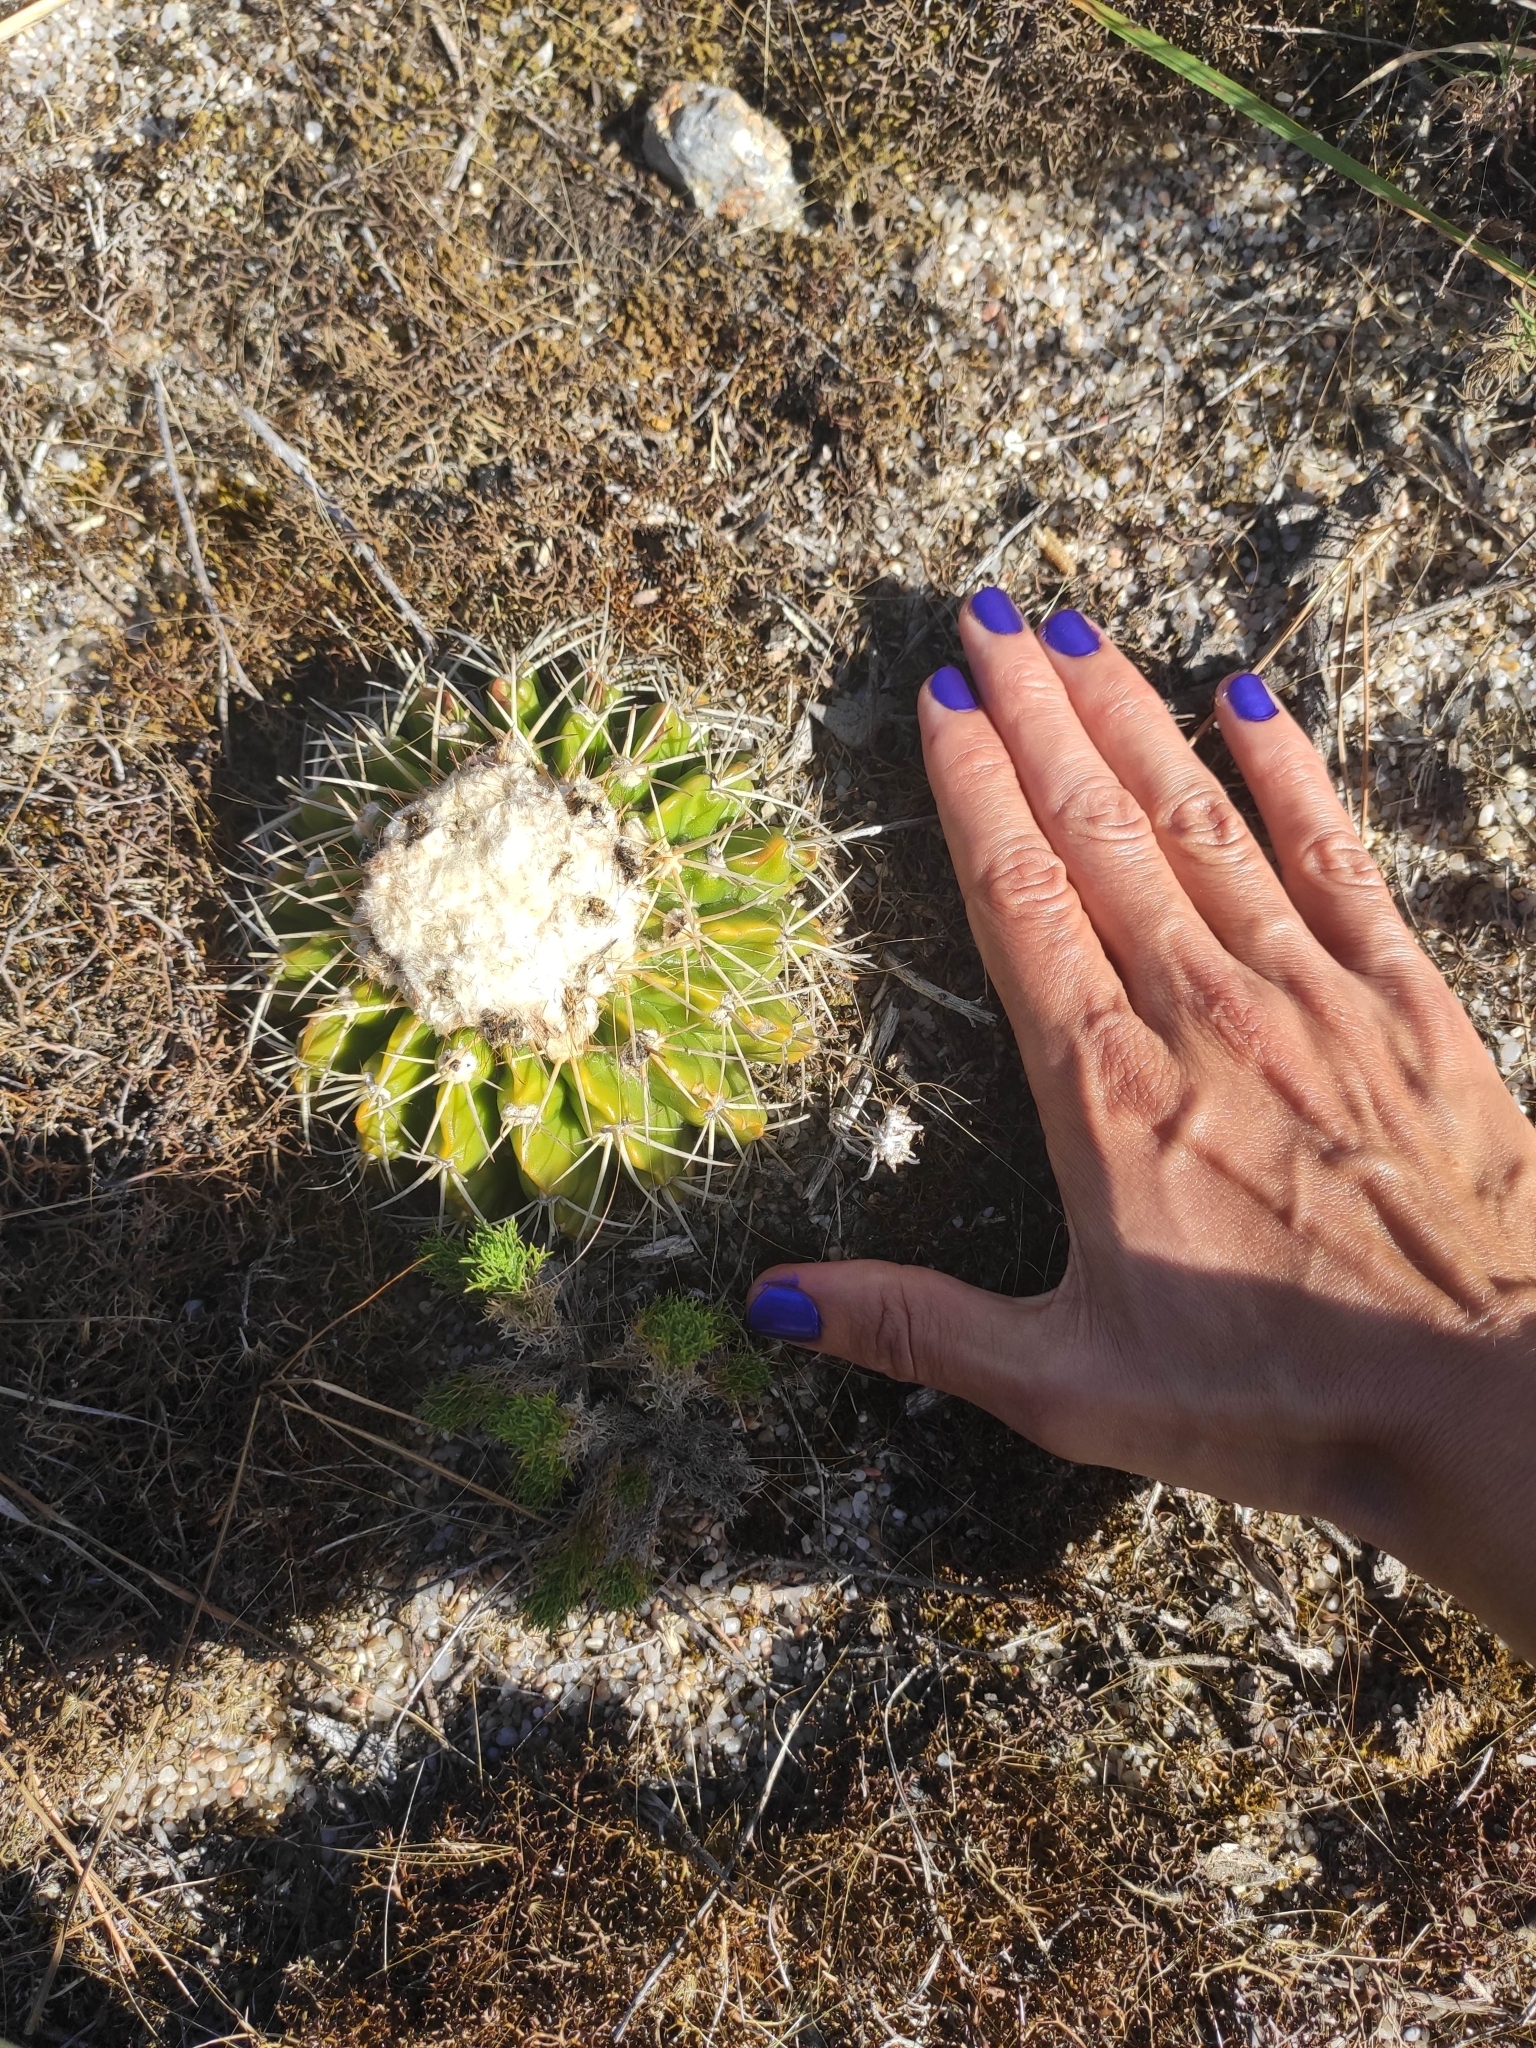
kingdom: Plantae
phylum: Tracheophyta
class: Magnoliopsida
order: Caryophyllales
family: Cactaceae
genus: Parodia
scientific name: Parodia erinacea
